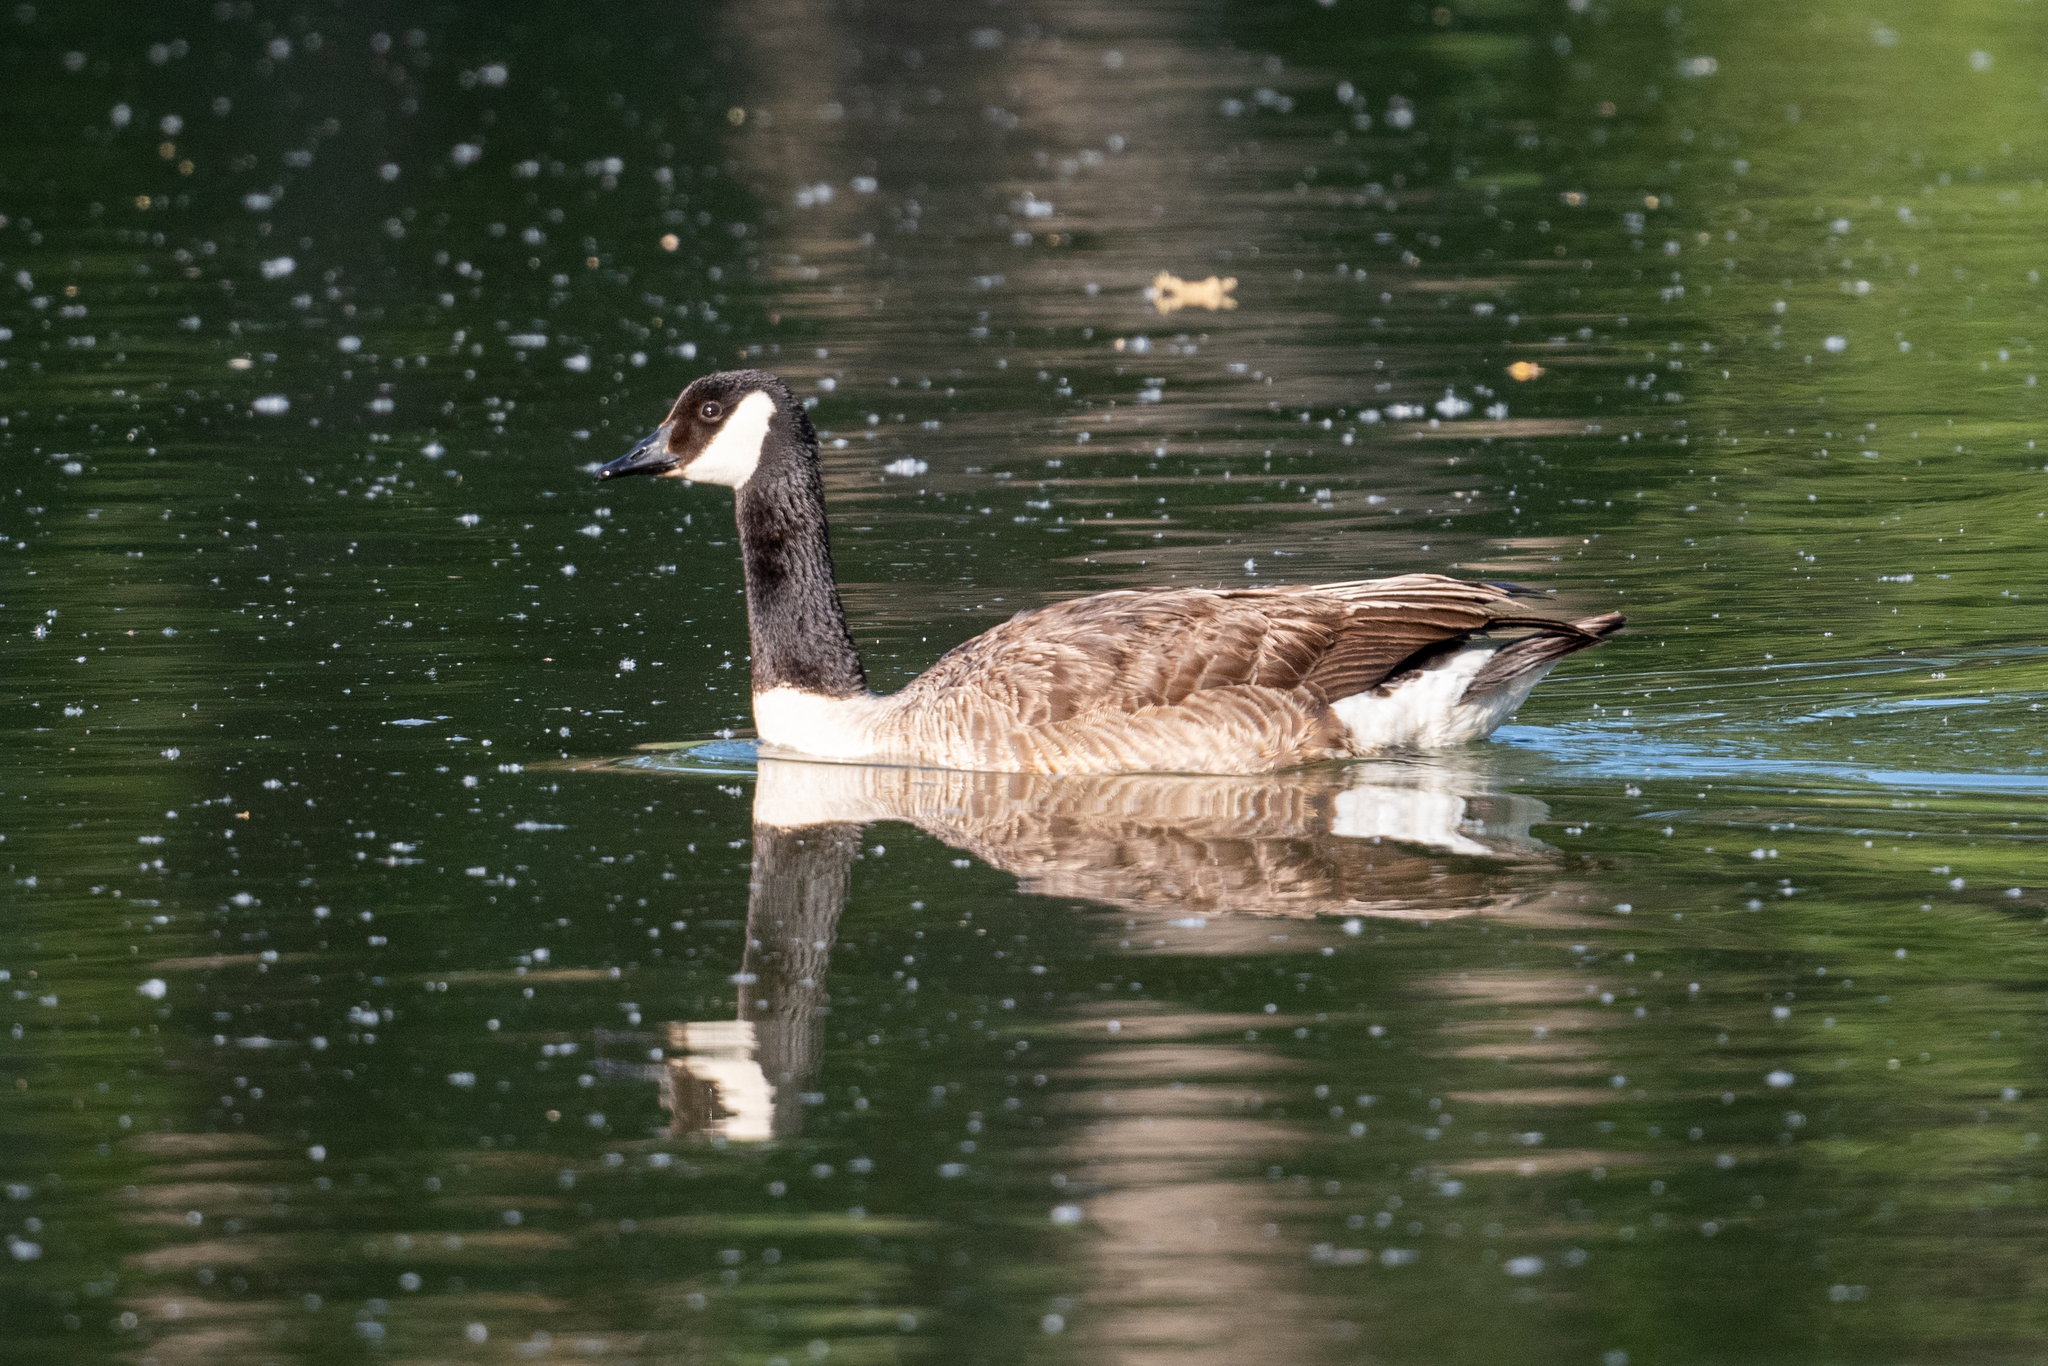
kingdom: Animalia
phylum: Chordata
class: Aves
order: Anseriformes
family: Anatidae
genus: Branta
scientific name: Branta canadensis
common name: Canada goose
